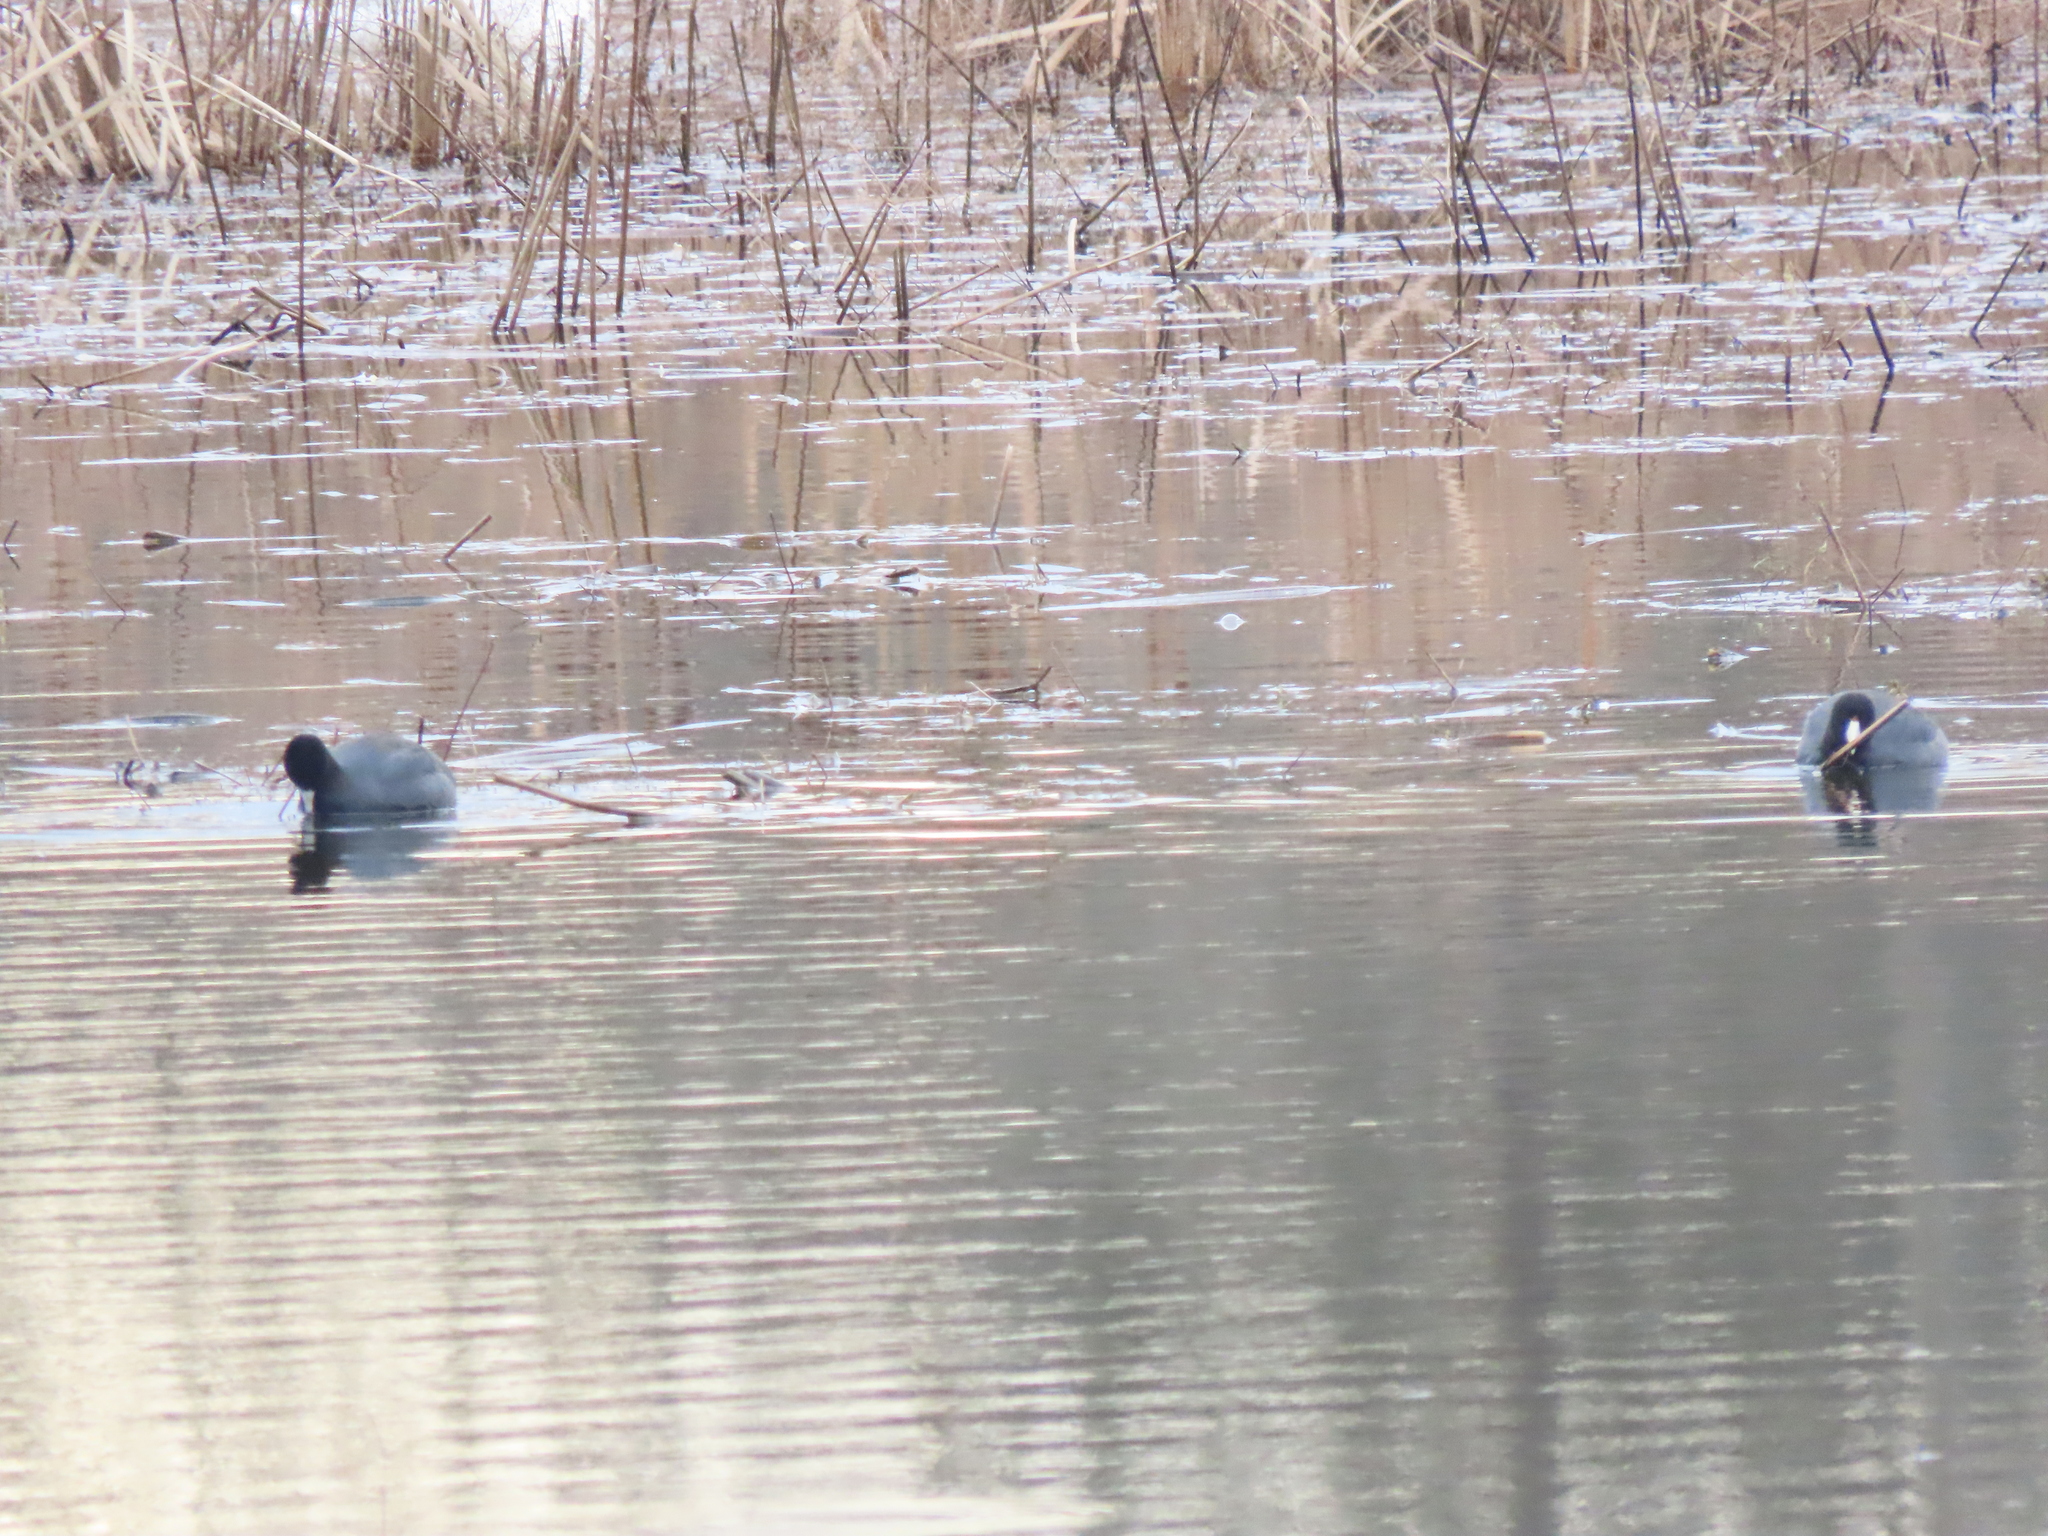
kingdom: Animalia
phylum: Chordata
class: Aves
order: Gruiformes
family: Rallidae
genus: Fulica
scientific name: Fulica americana
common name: American coot
